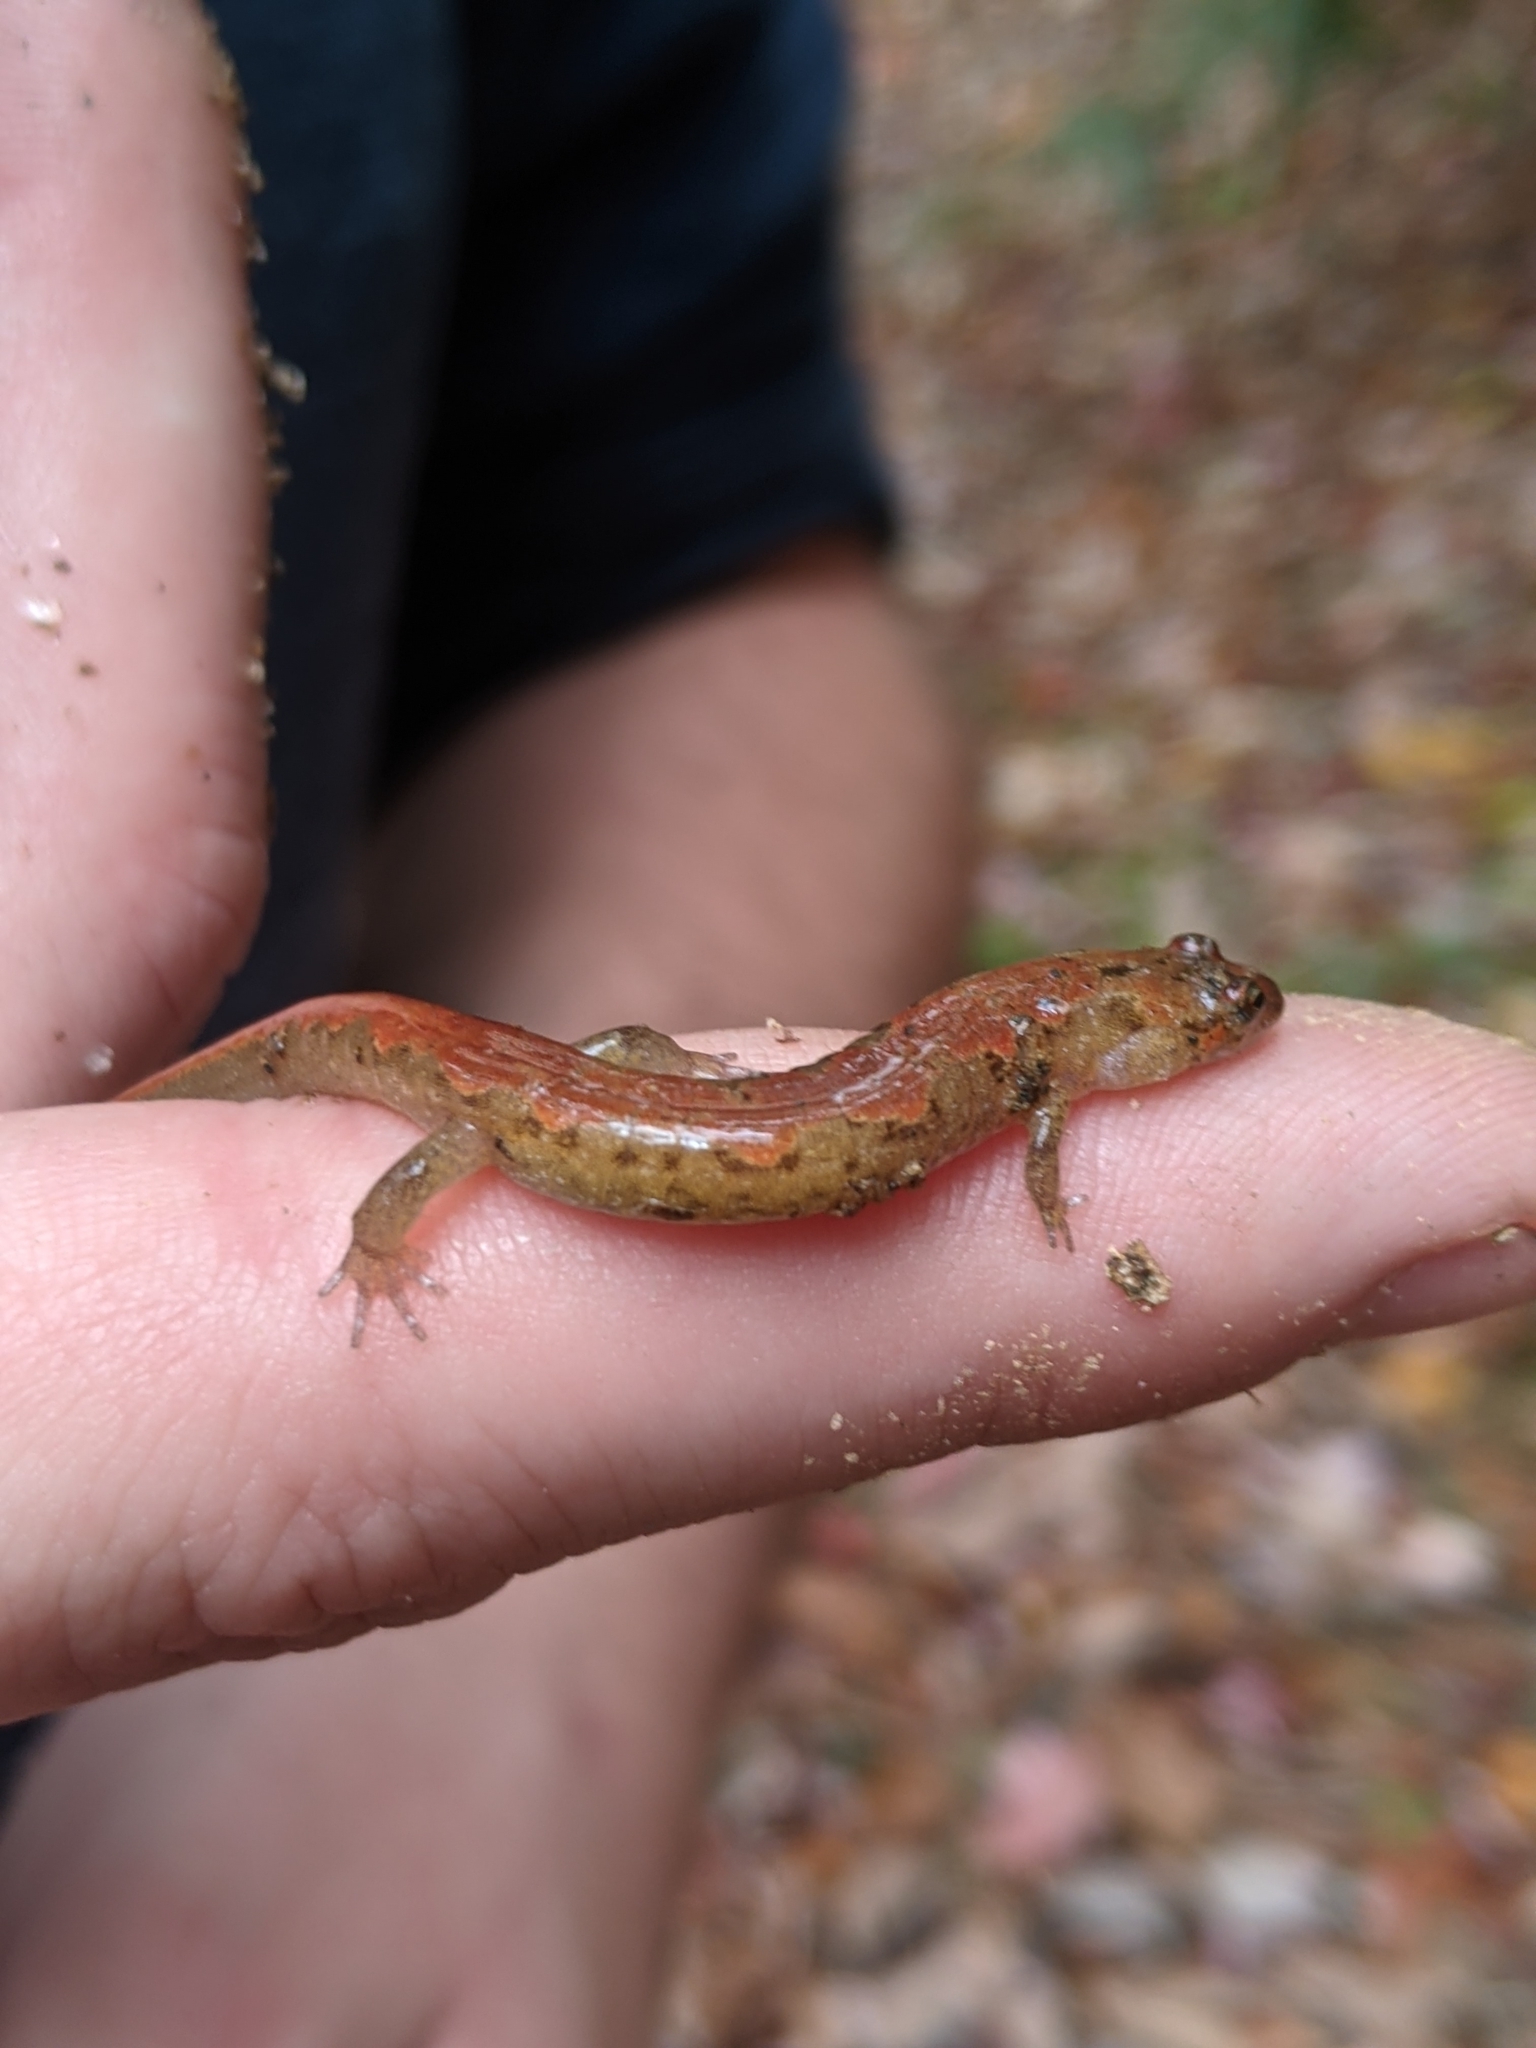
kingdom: Animalia
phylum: Chordata
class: Amphibia
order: Caudata
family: Plethodontidae
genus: Desmognathus
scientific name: Desmognathus ocoee
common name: Ocoee salamander
